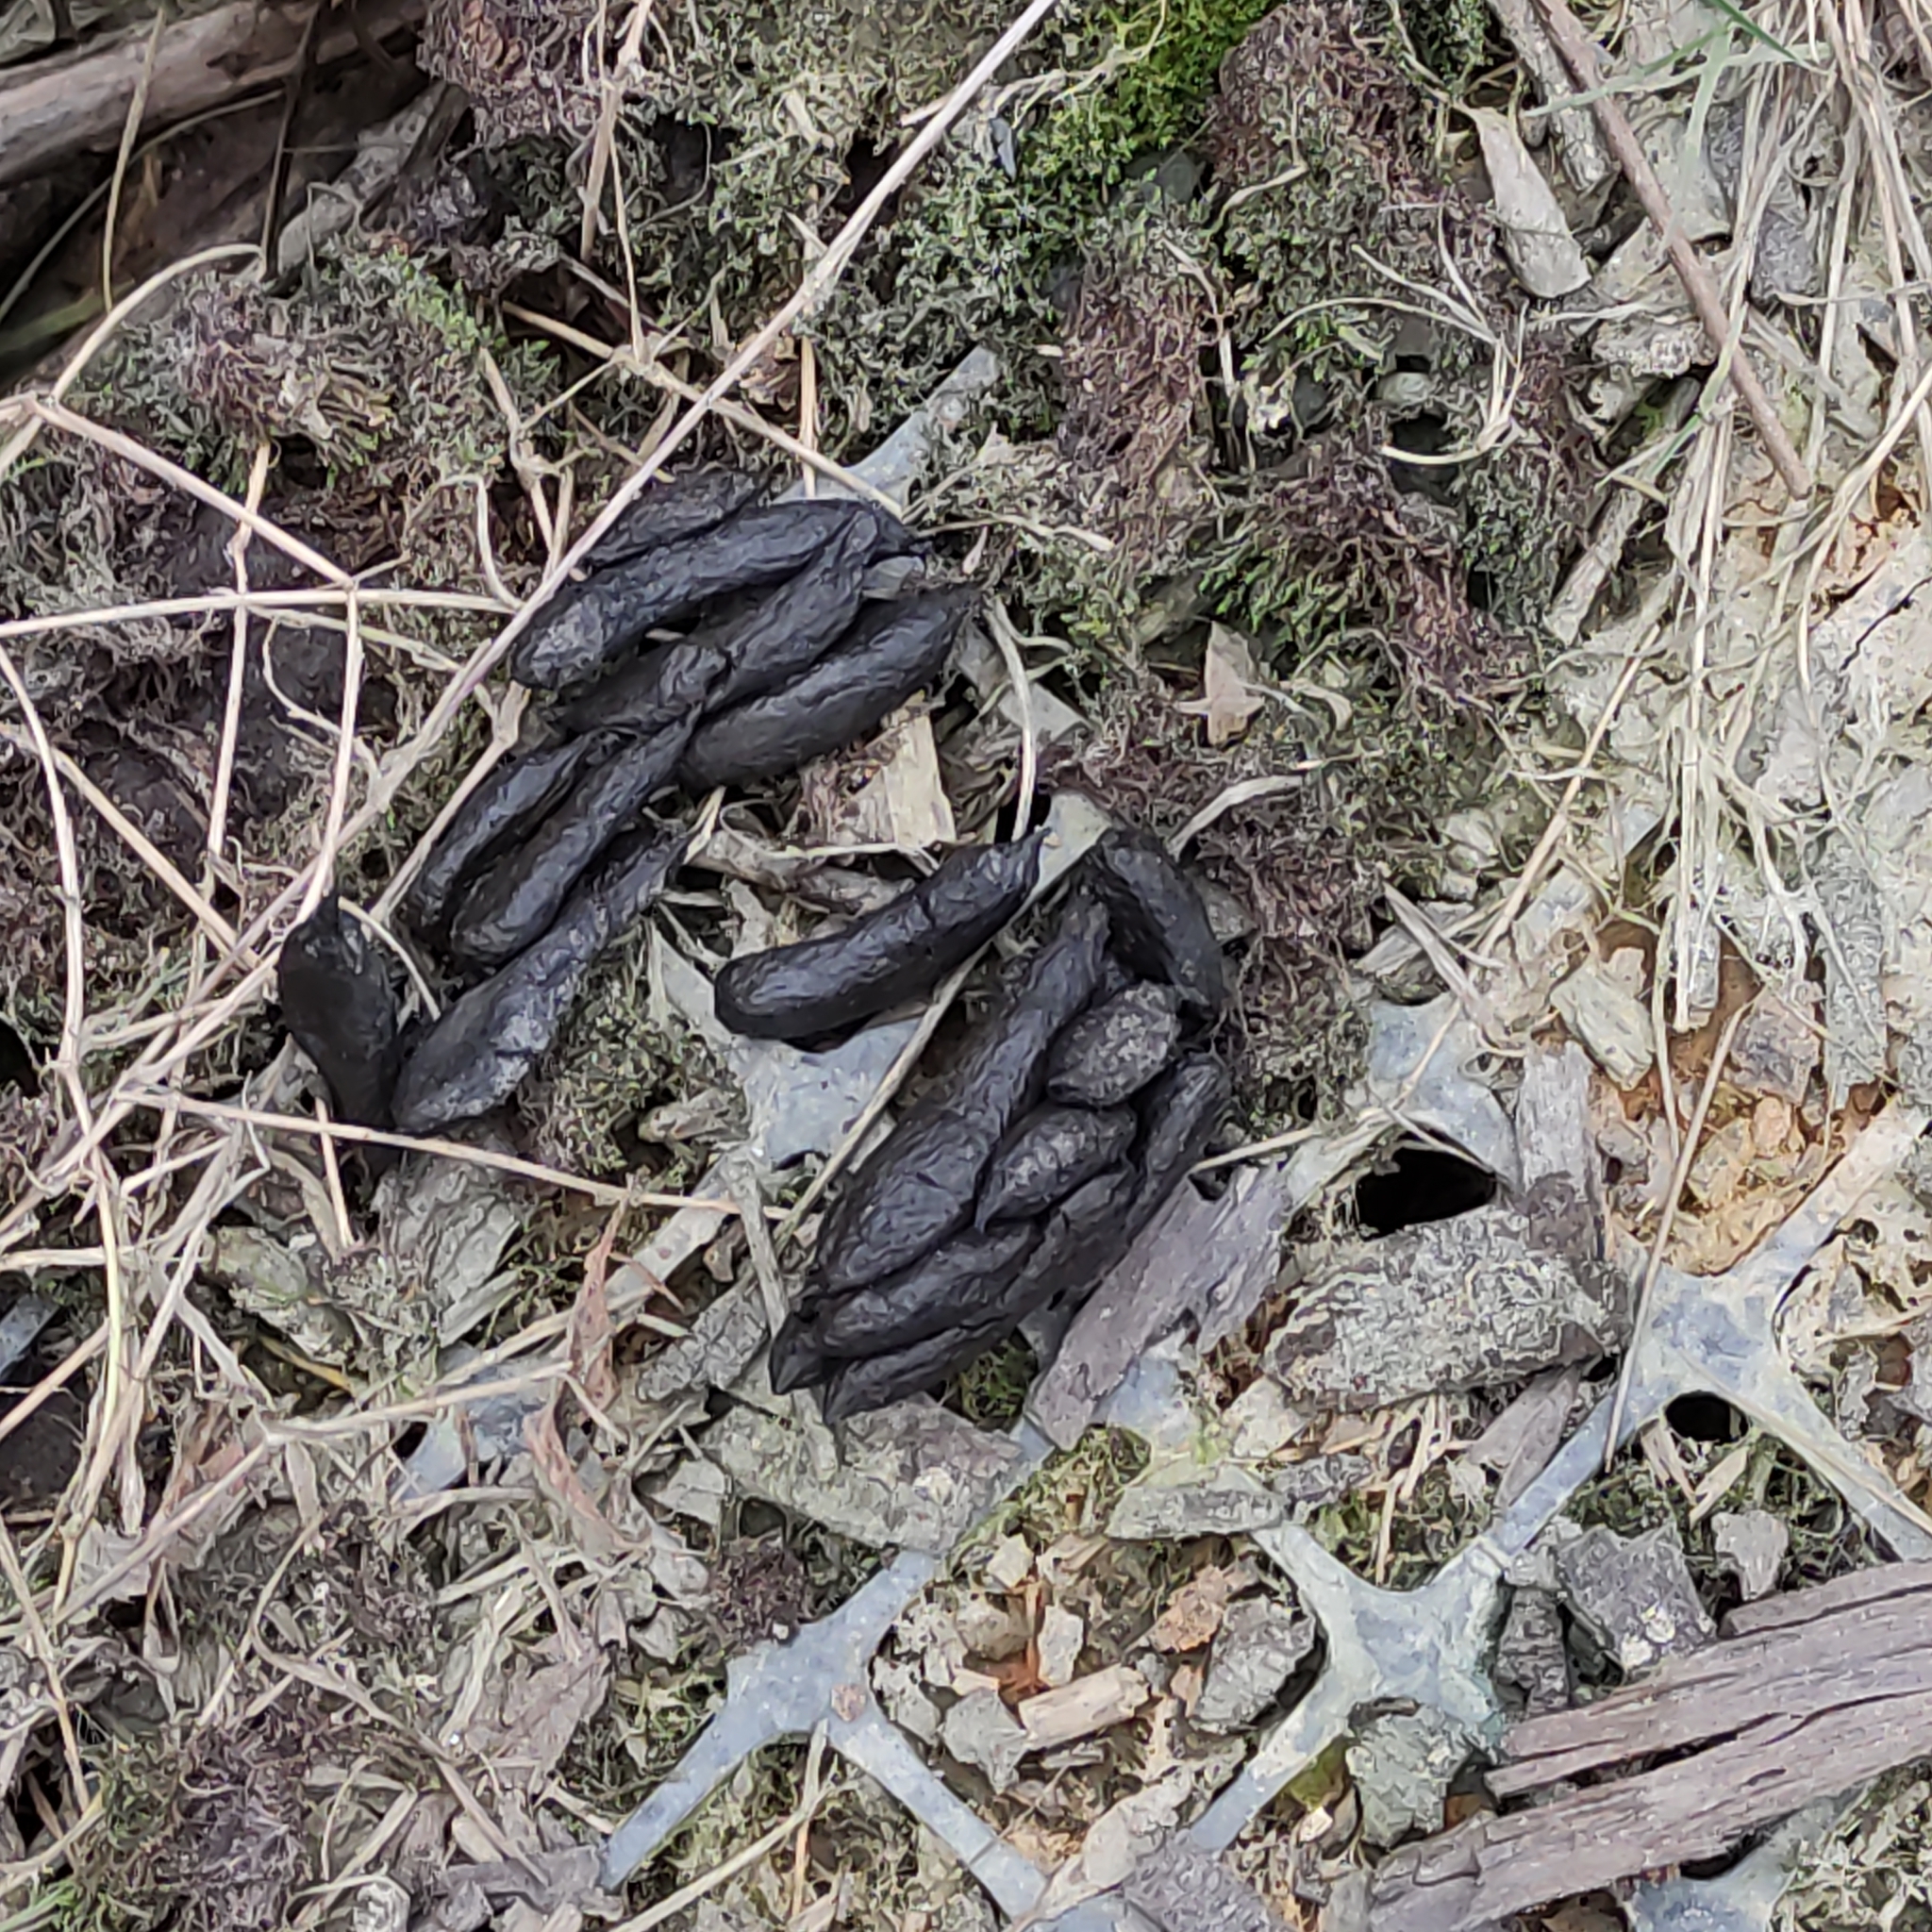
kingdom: Animalia
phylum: Chordata
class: Mammalia
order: Diprotodontia
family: Phalangeridae
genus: Trichosurus
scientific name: Trichosurus vulpecula
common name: Common brushtail
